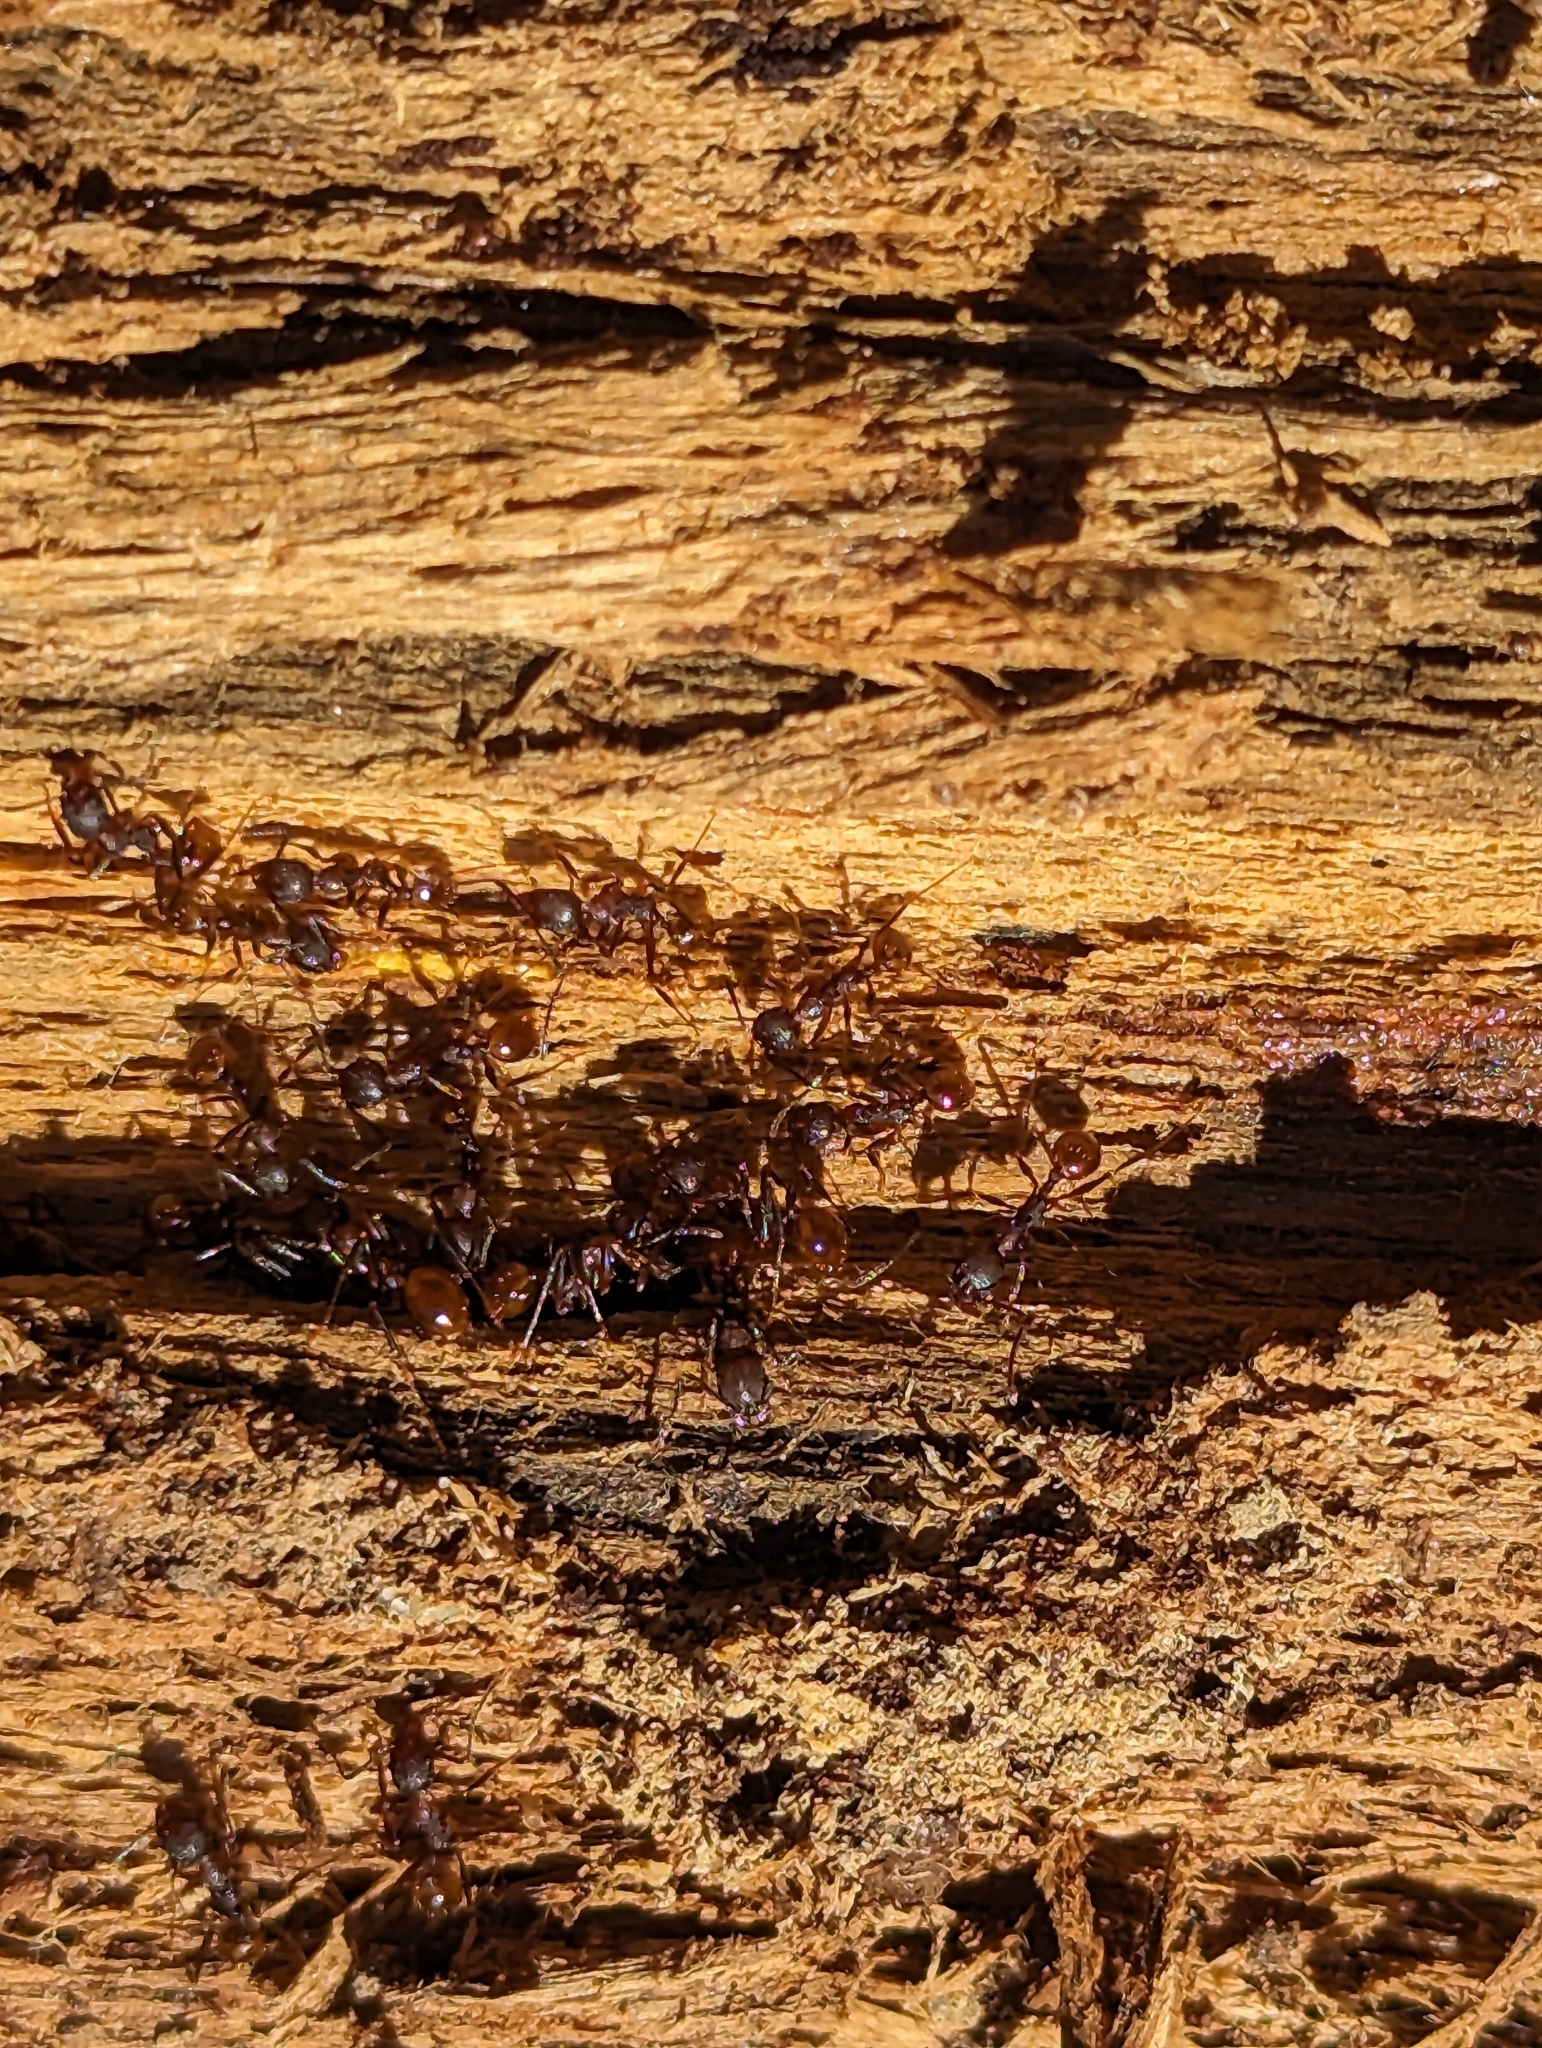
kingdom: Animalia
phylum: Arthropoda
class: Insecta
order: Hymenoptera
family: Formicidae
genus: Aphaenogaster
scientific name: Aphaenogaster fulva
